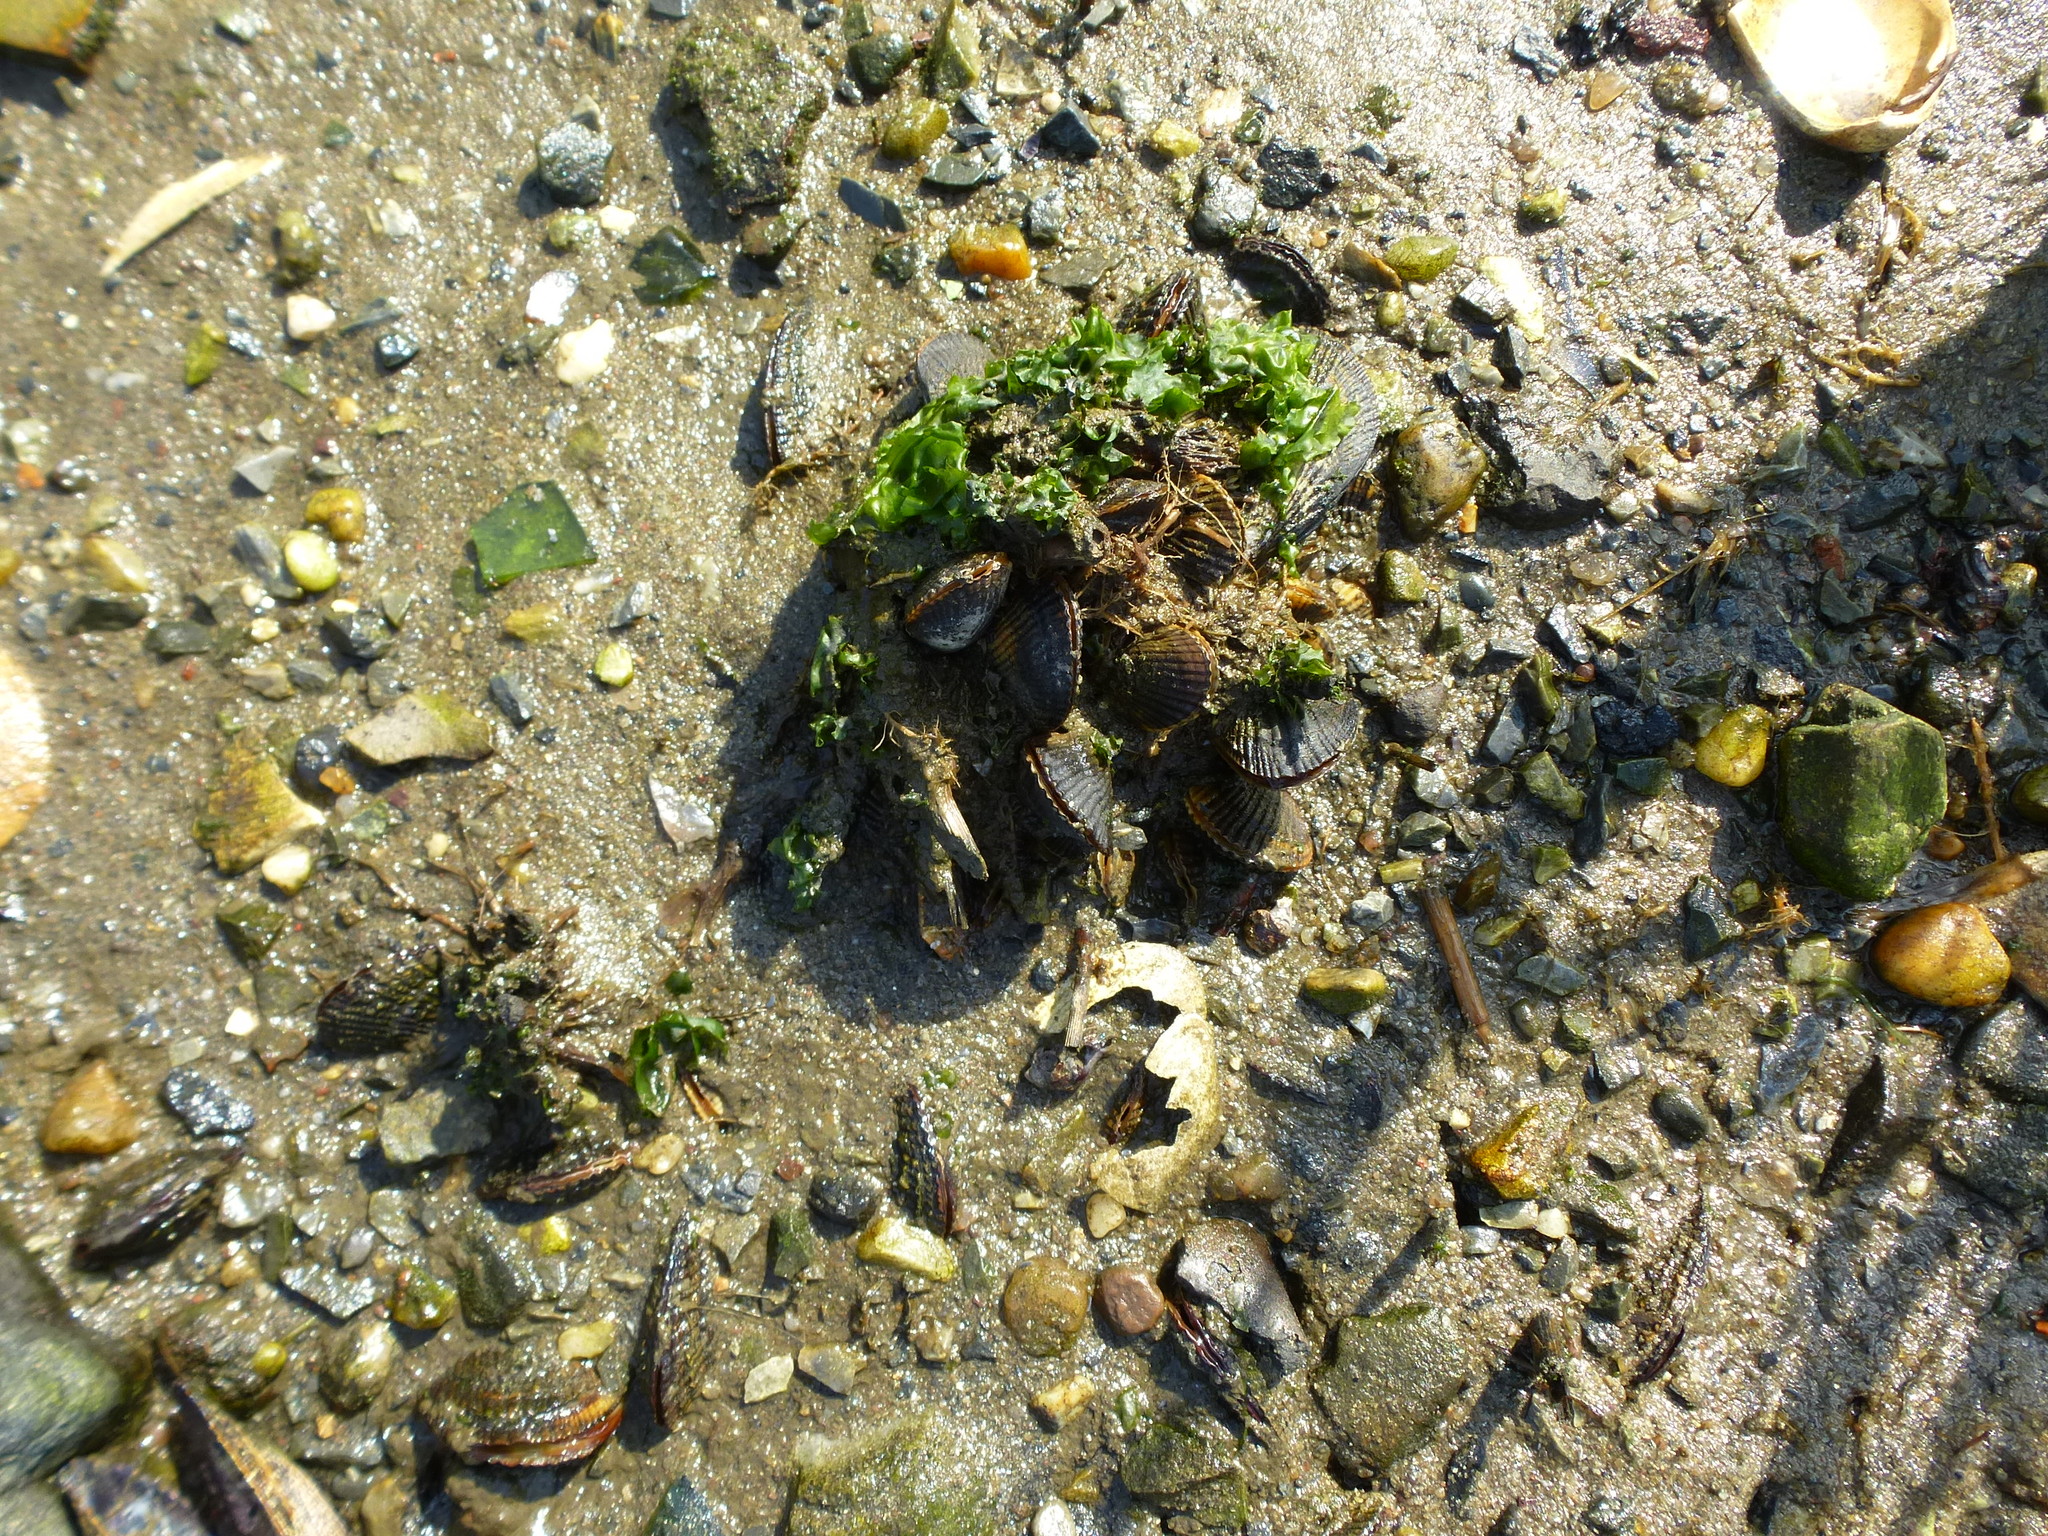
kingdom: Animalia
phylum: Mollusca
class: Bivalvia
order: Mytilida
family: Mytilidae
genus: Geukensia
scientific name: Geukensia demissa
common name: Ribbed mussel
